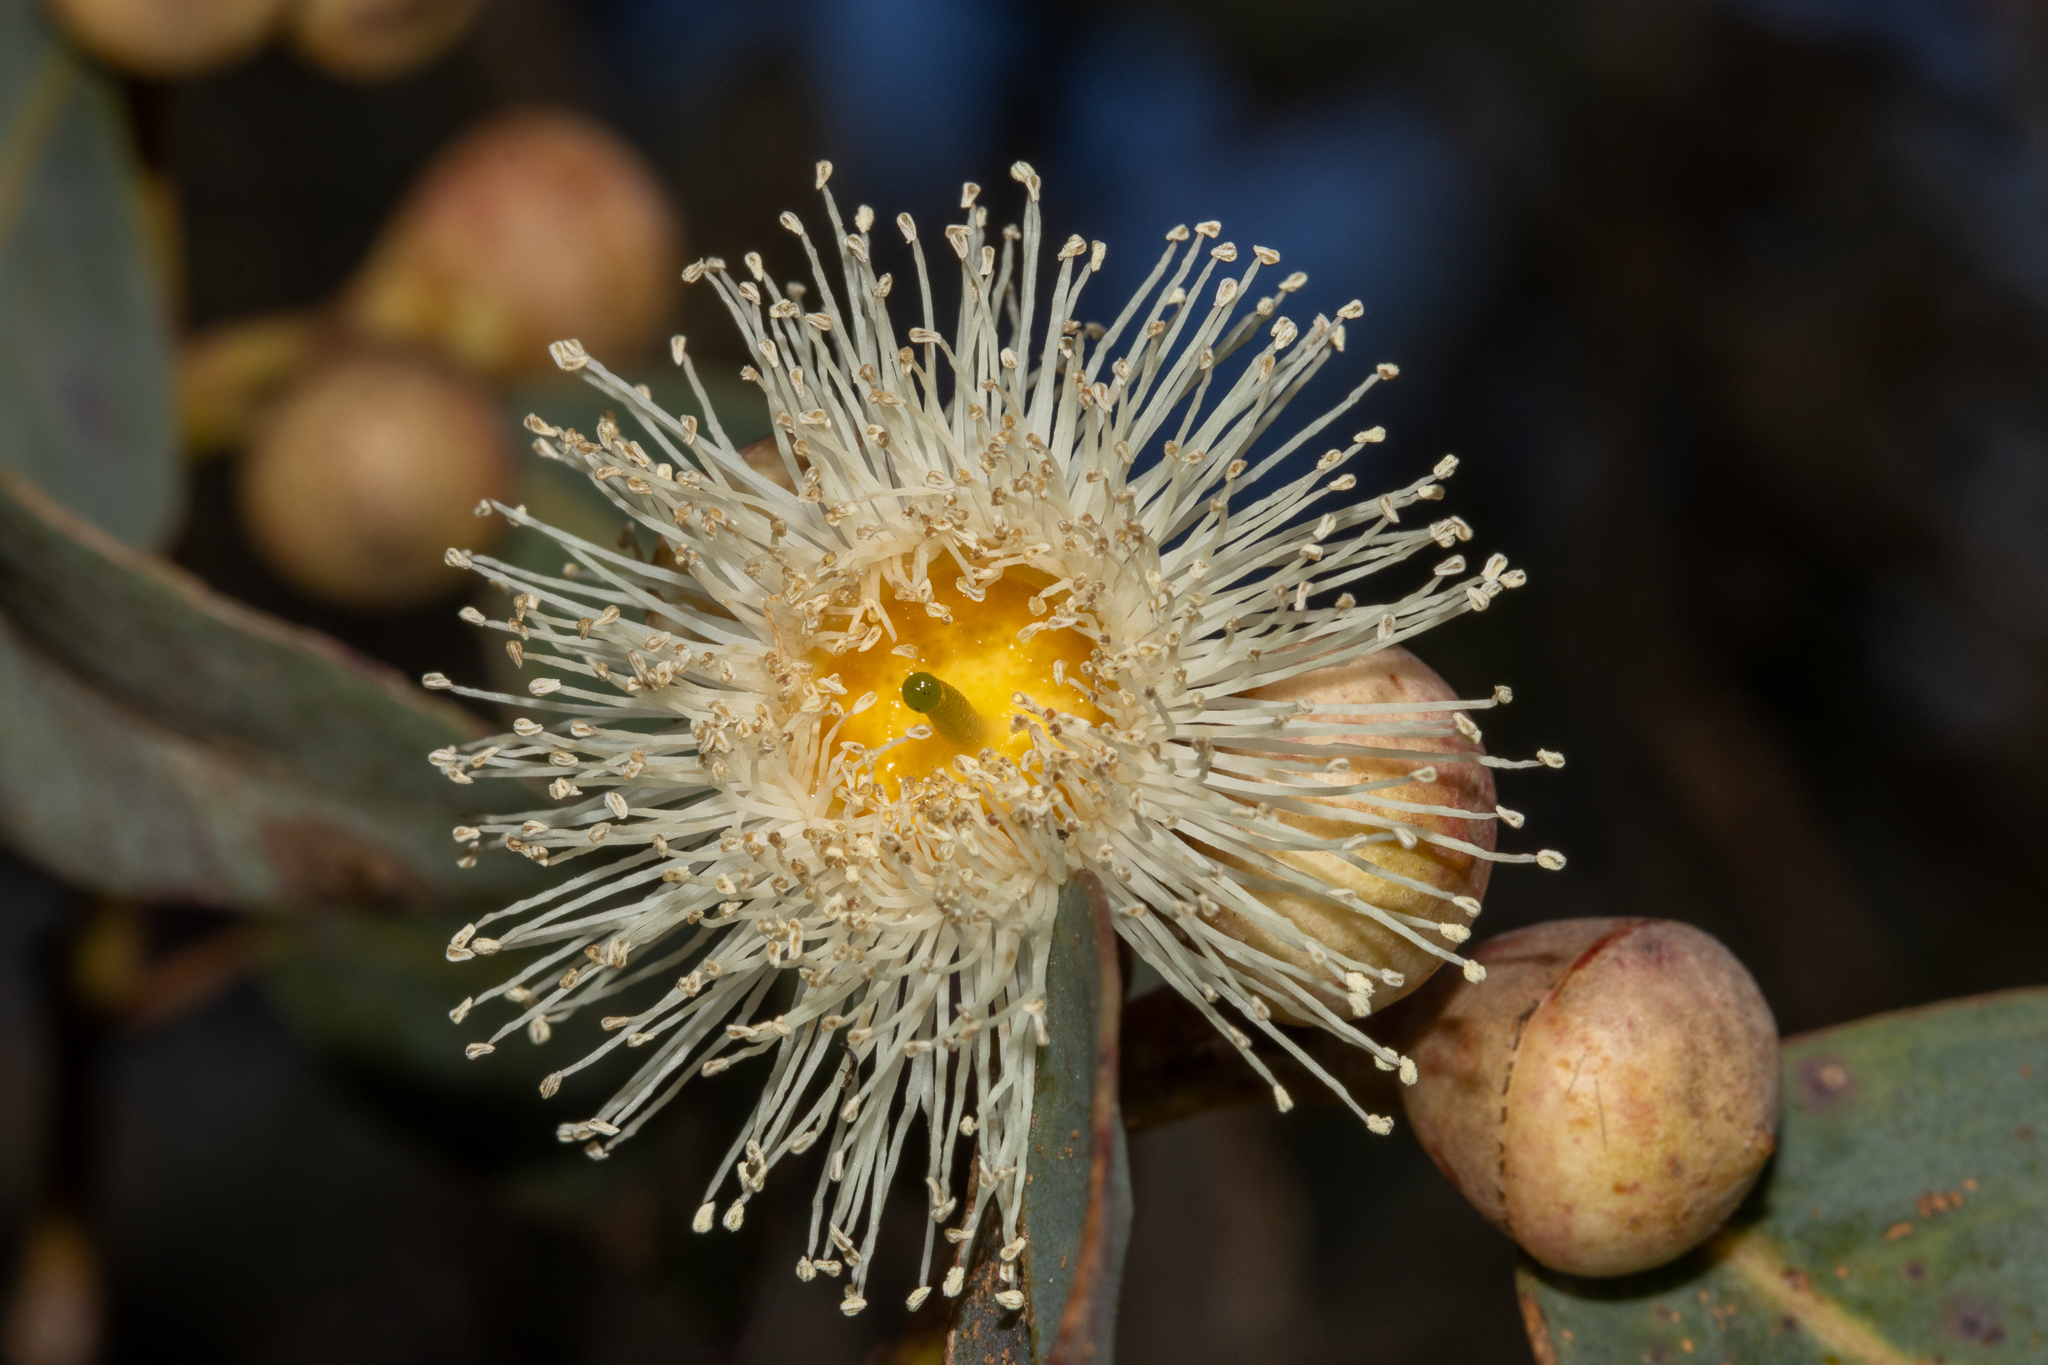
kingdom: Plantae
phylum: Tracheophyta
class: Magnoliopsida
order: Myrtales
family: Myrtaceae
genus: Eucalyptus
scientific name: Eucalyptus cosmophylla
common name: Bog-gum
